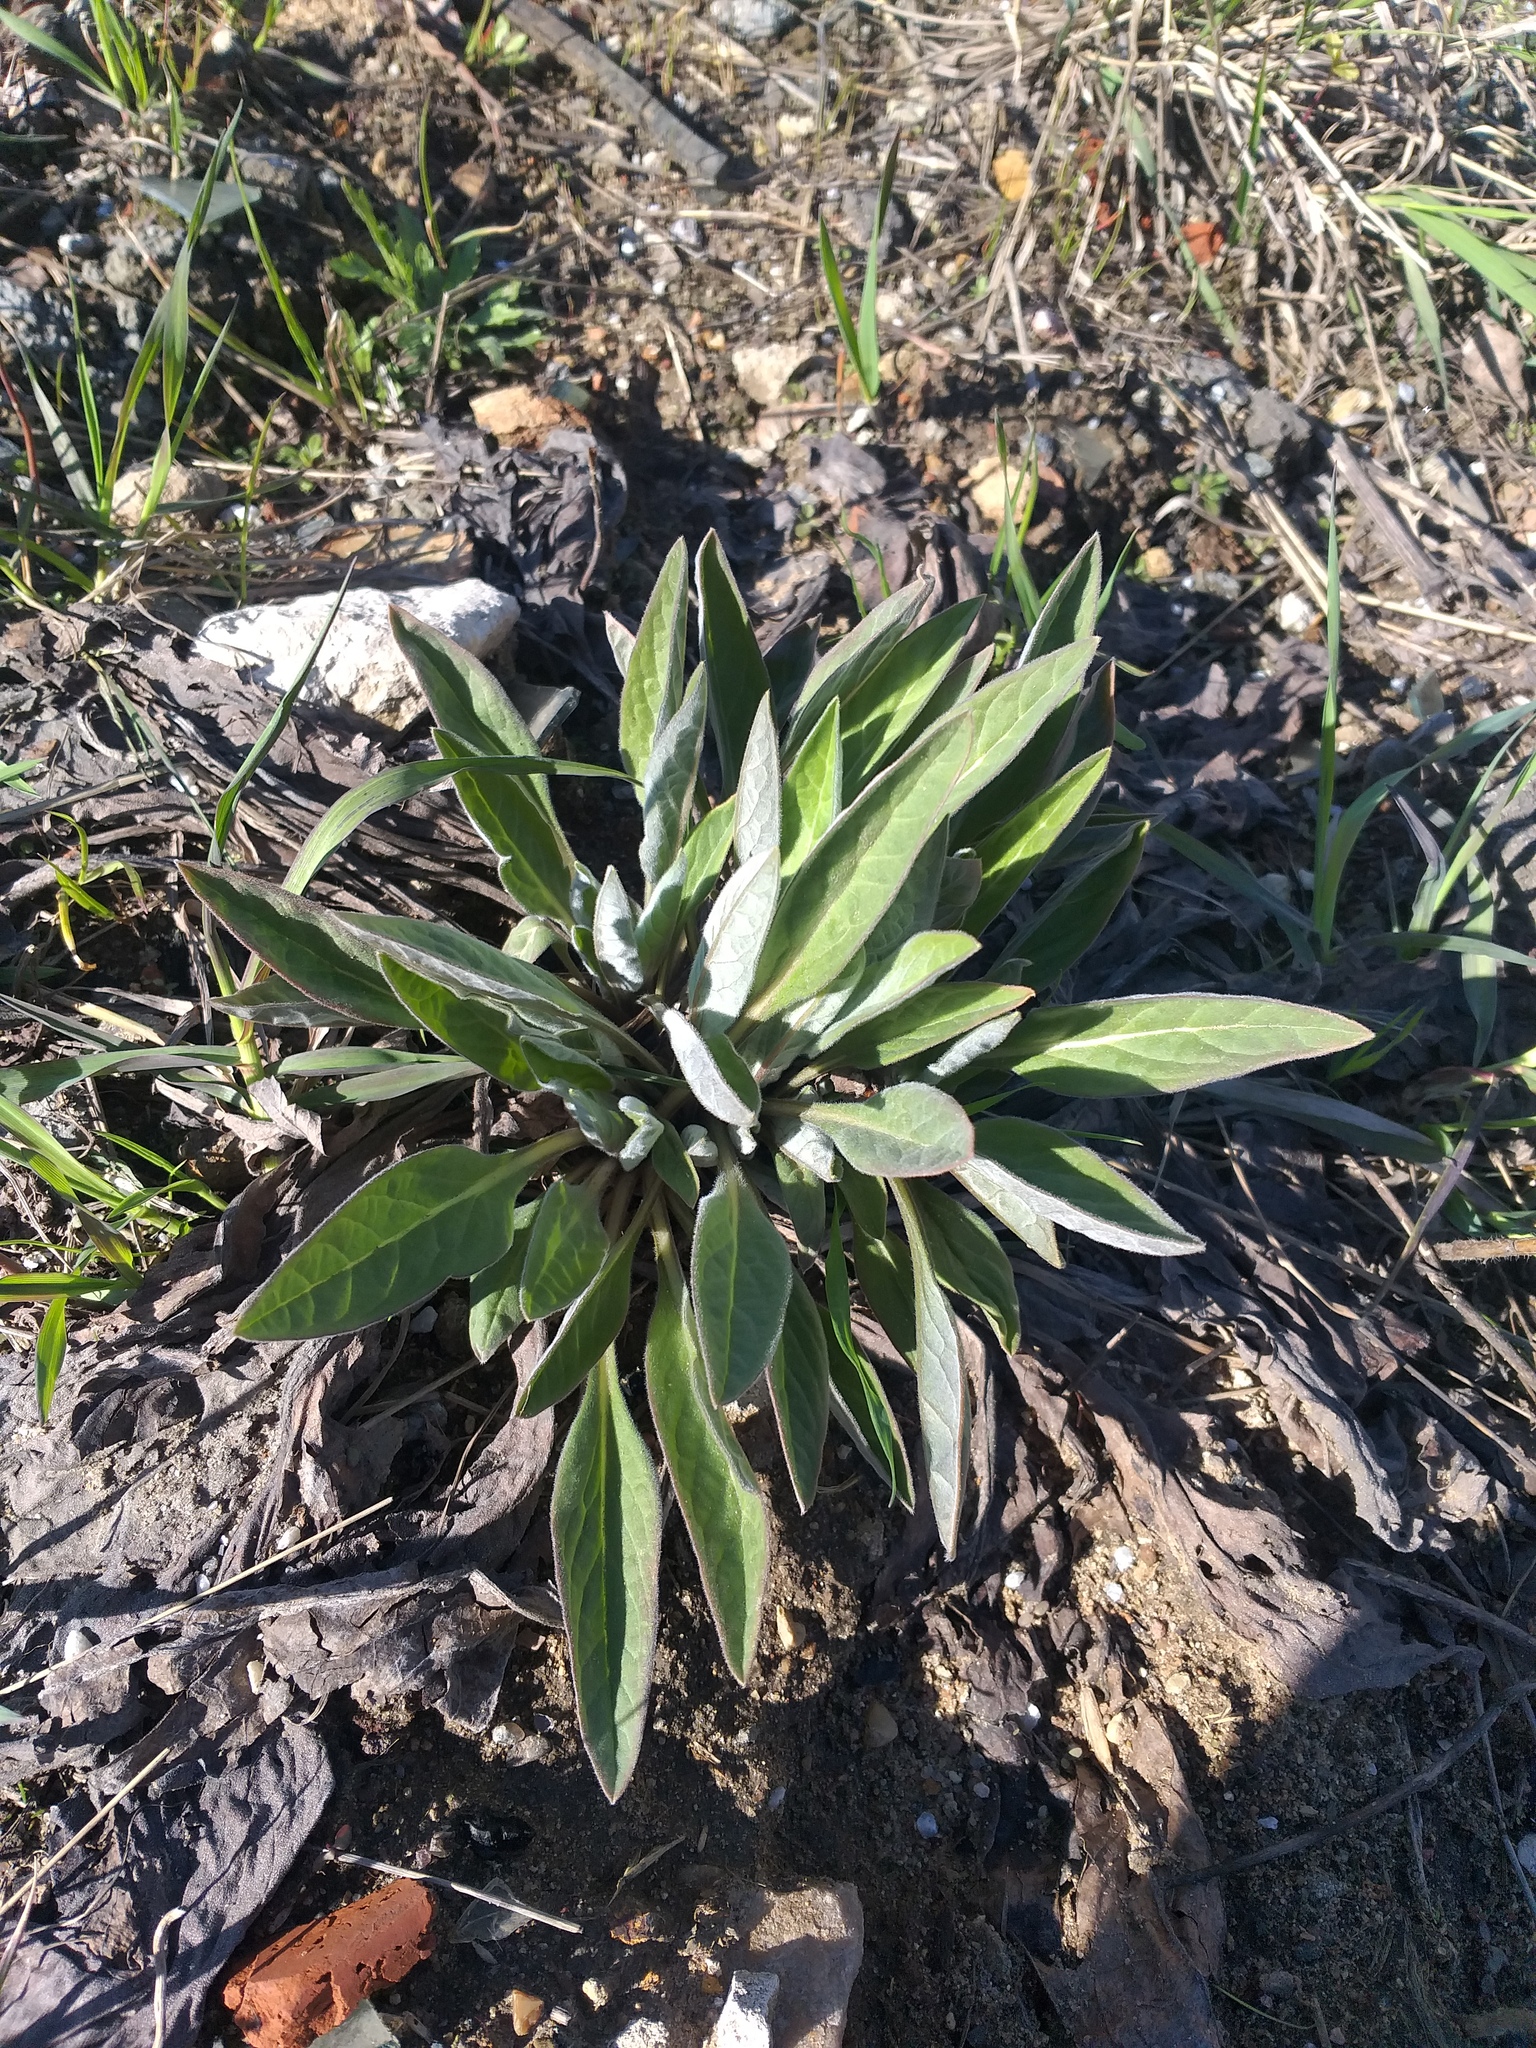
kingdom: Plantae
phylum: Tracheophyta
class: Magnoliopsida
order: Boraginales
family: Boraginaceae
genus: Cynoglossum
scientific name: Cynoglossum officinale
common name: Hound's-tongue
